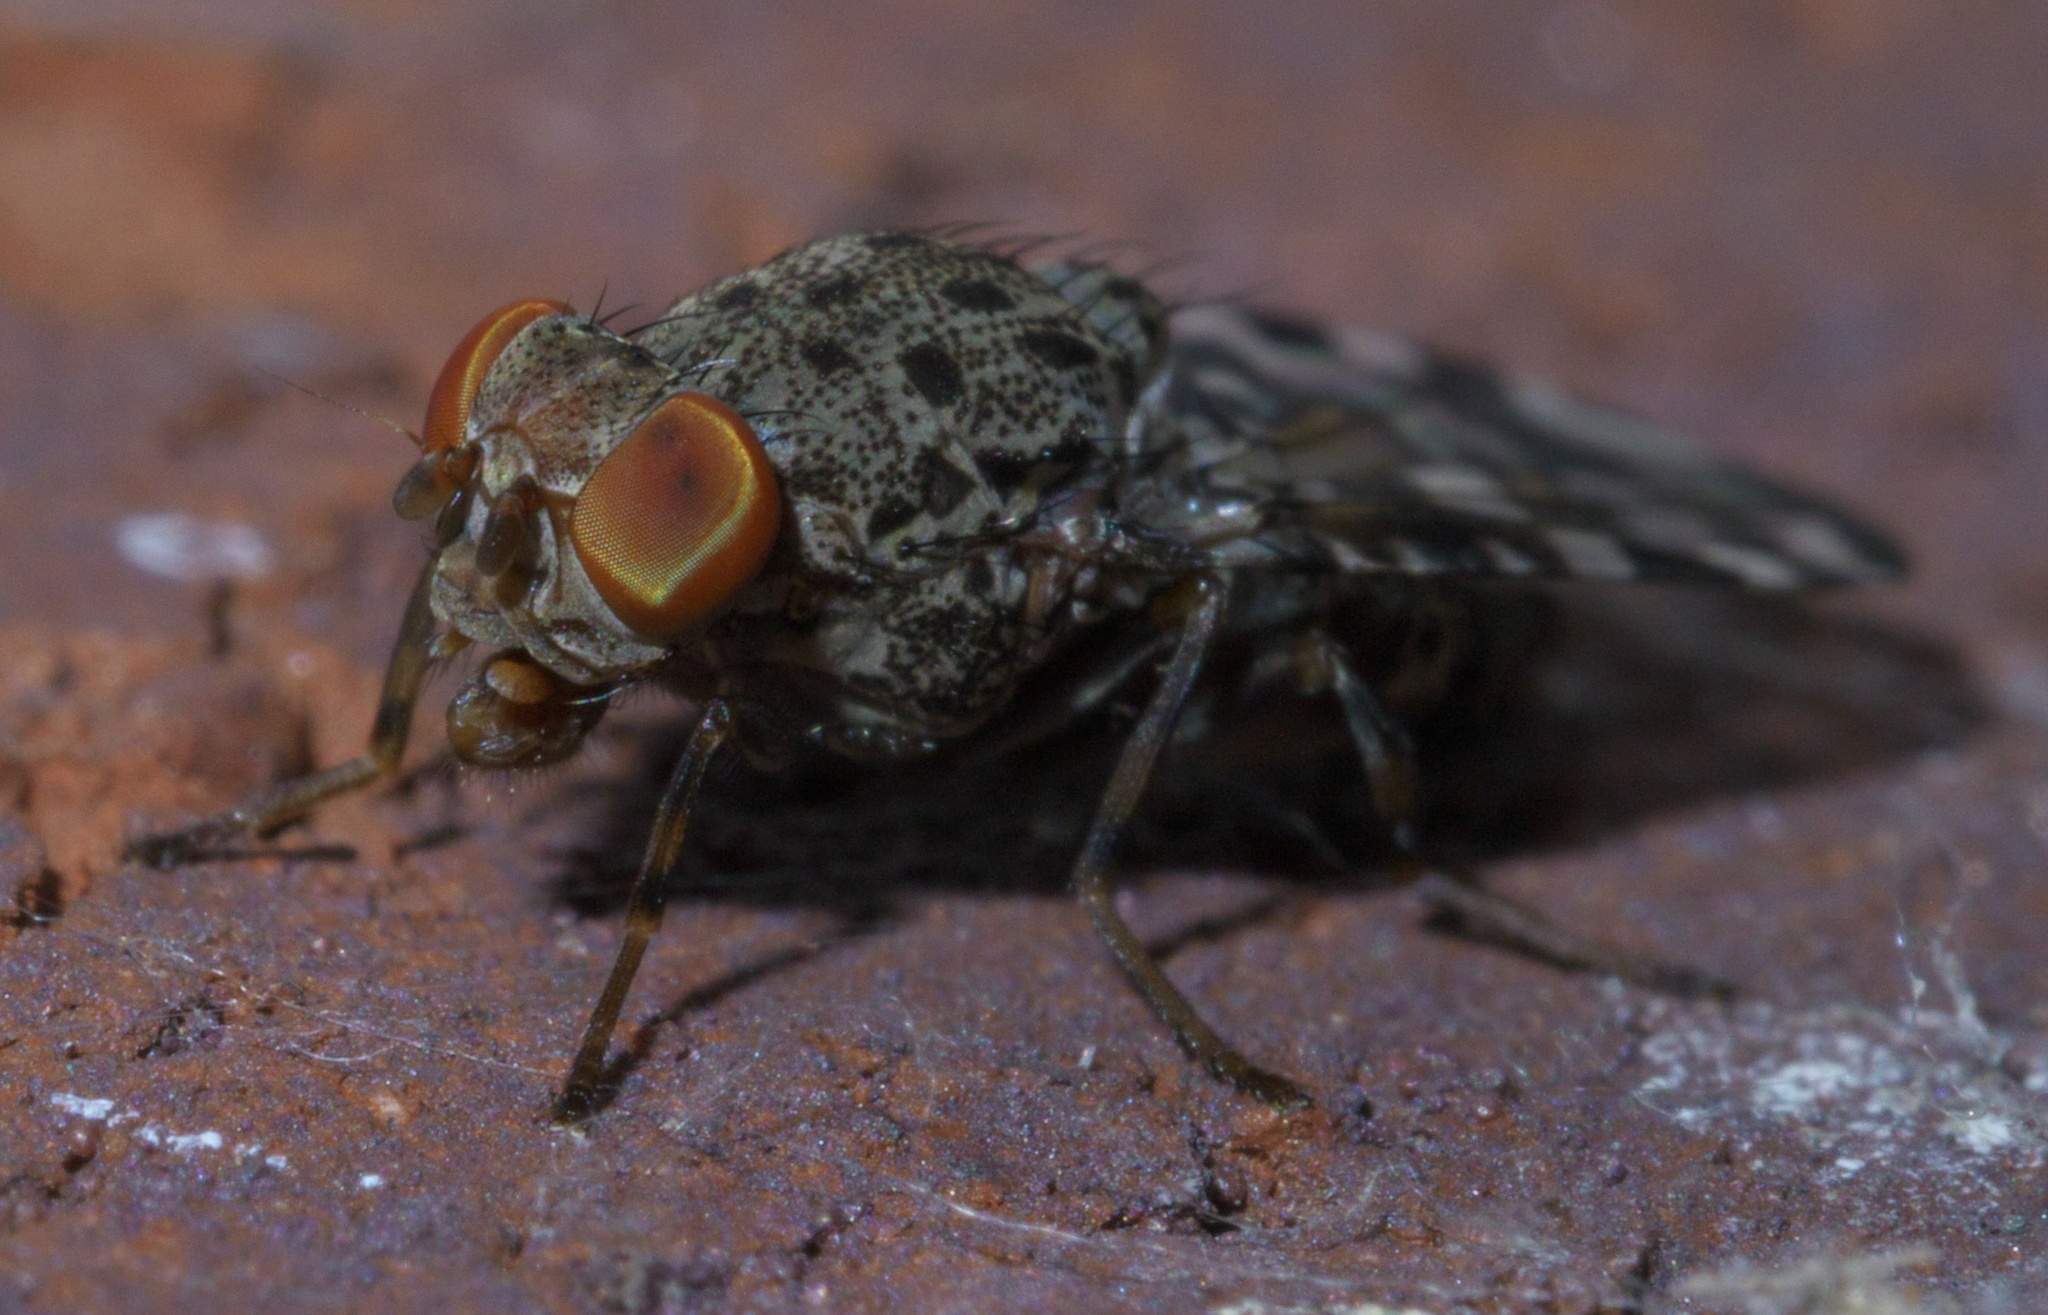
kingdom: Animalia
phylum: Arthropoda
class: Insecta
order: Diptera
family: Ulidiidae
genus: Pseudotephritis
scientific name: Pseudotephritis approximata
